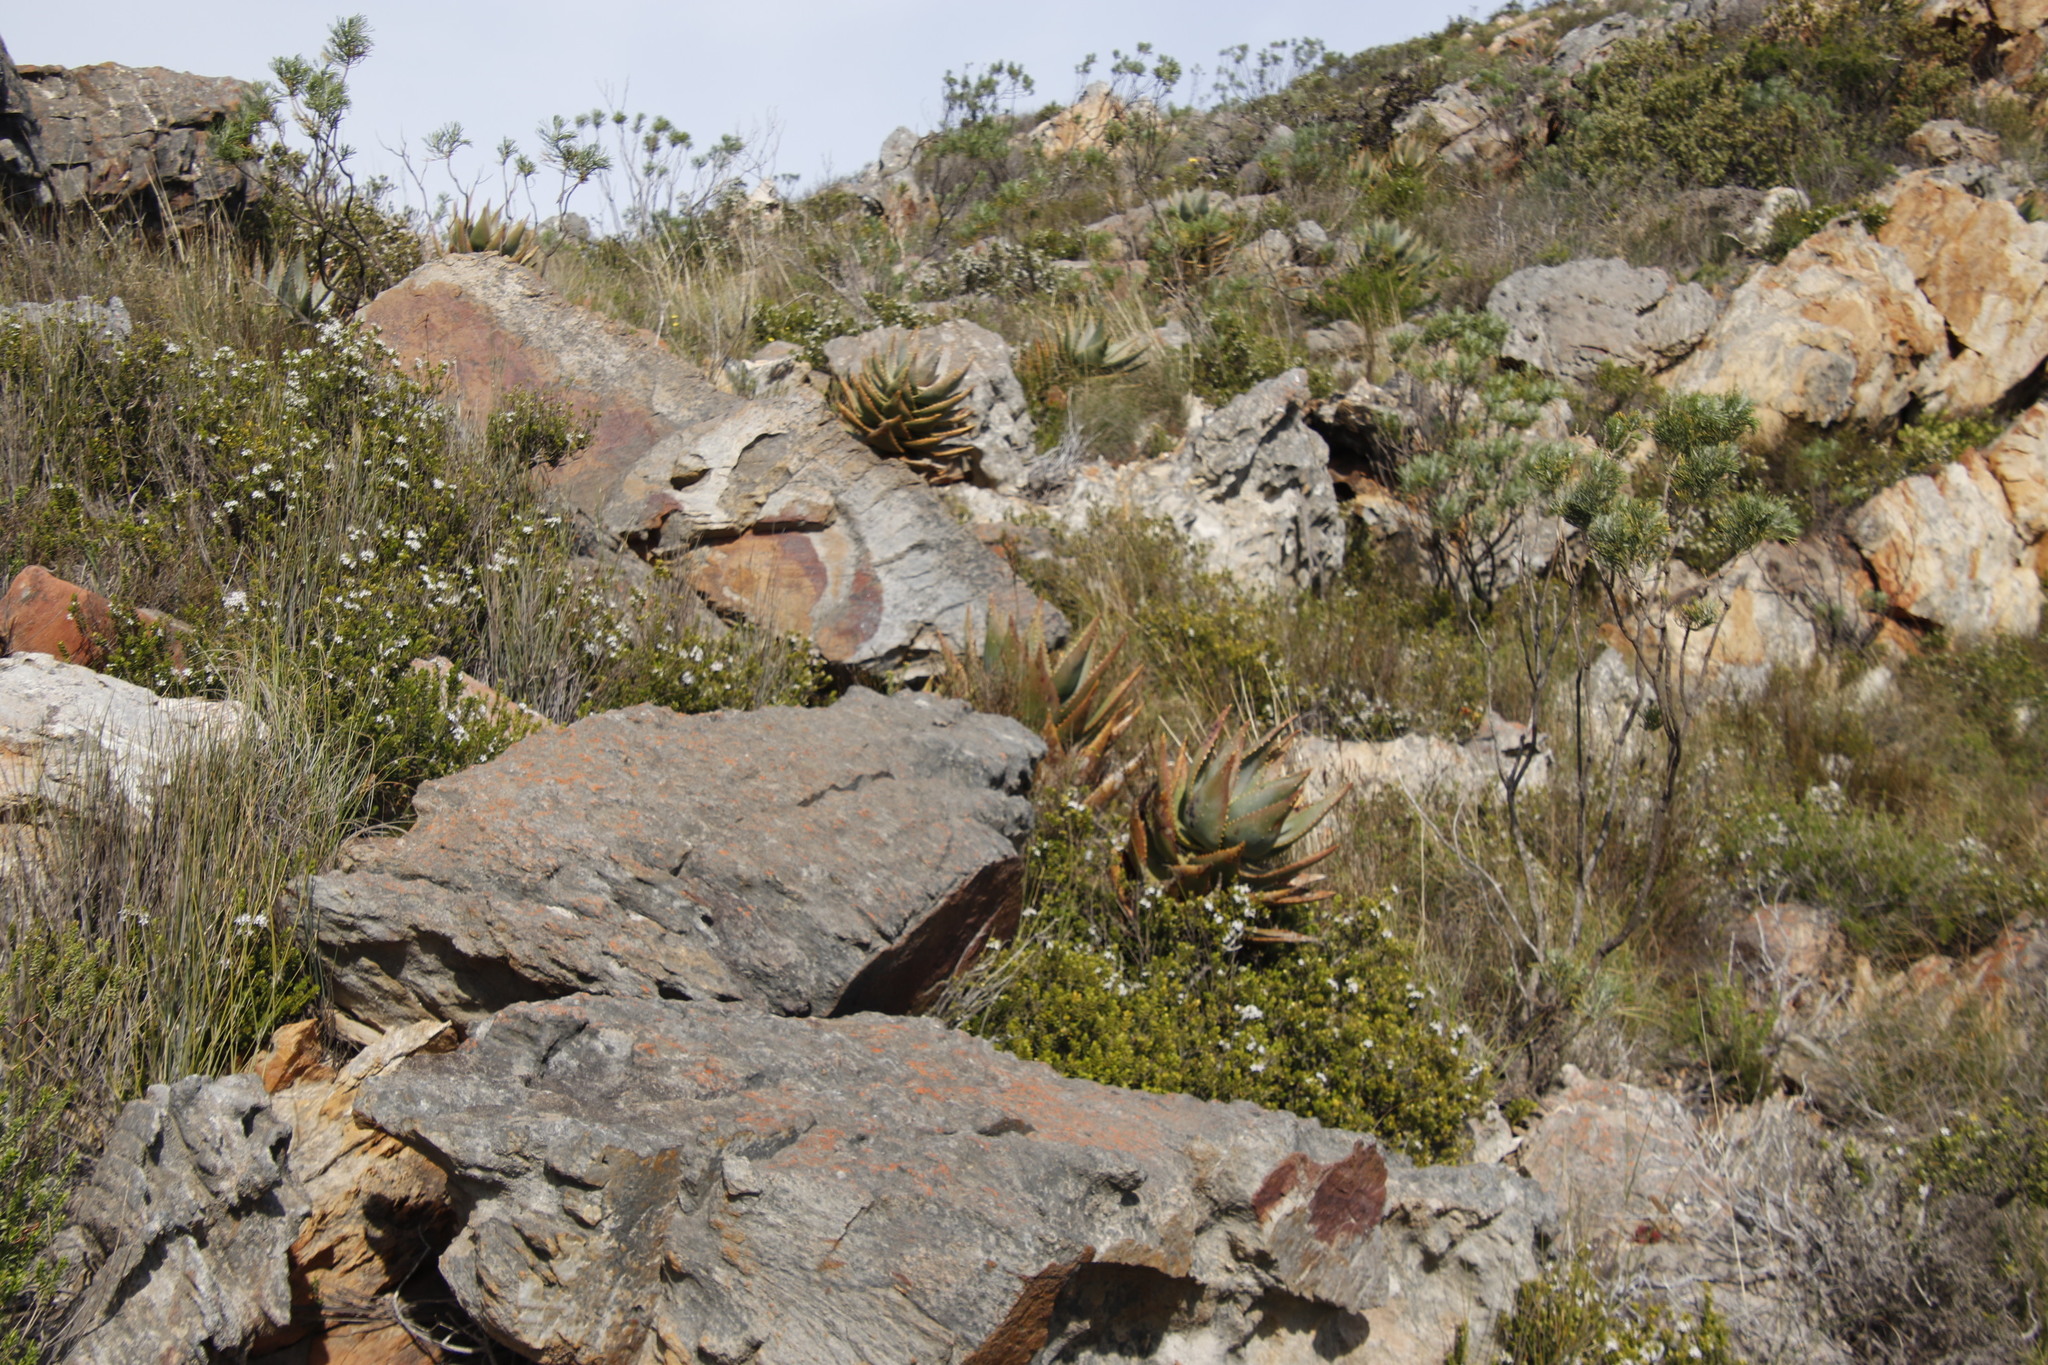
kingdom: Plantae
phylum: Tracheophyta
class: Liliopsida
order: Asparagales
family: Asphodelaceae
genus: Aloe
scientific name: Aloe perfoliata
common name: Mitra aloe
